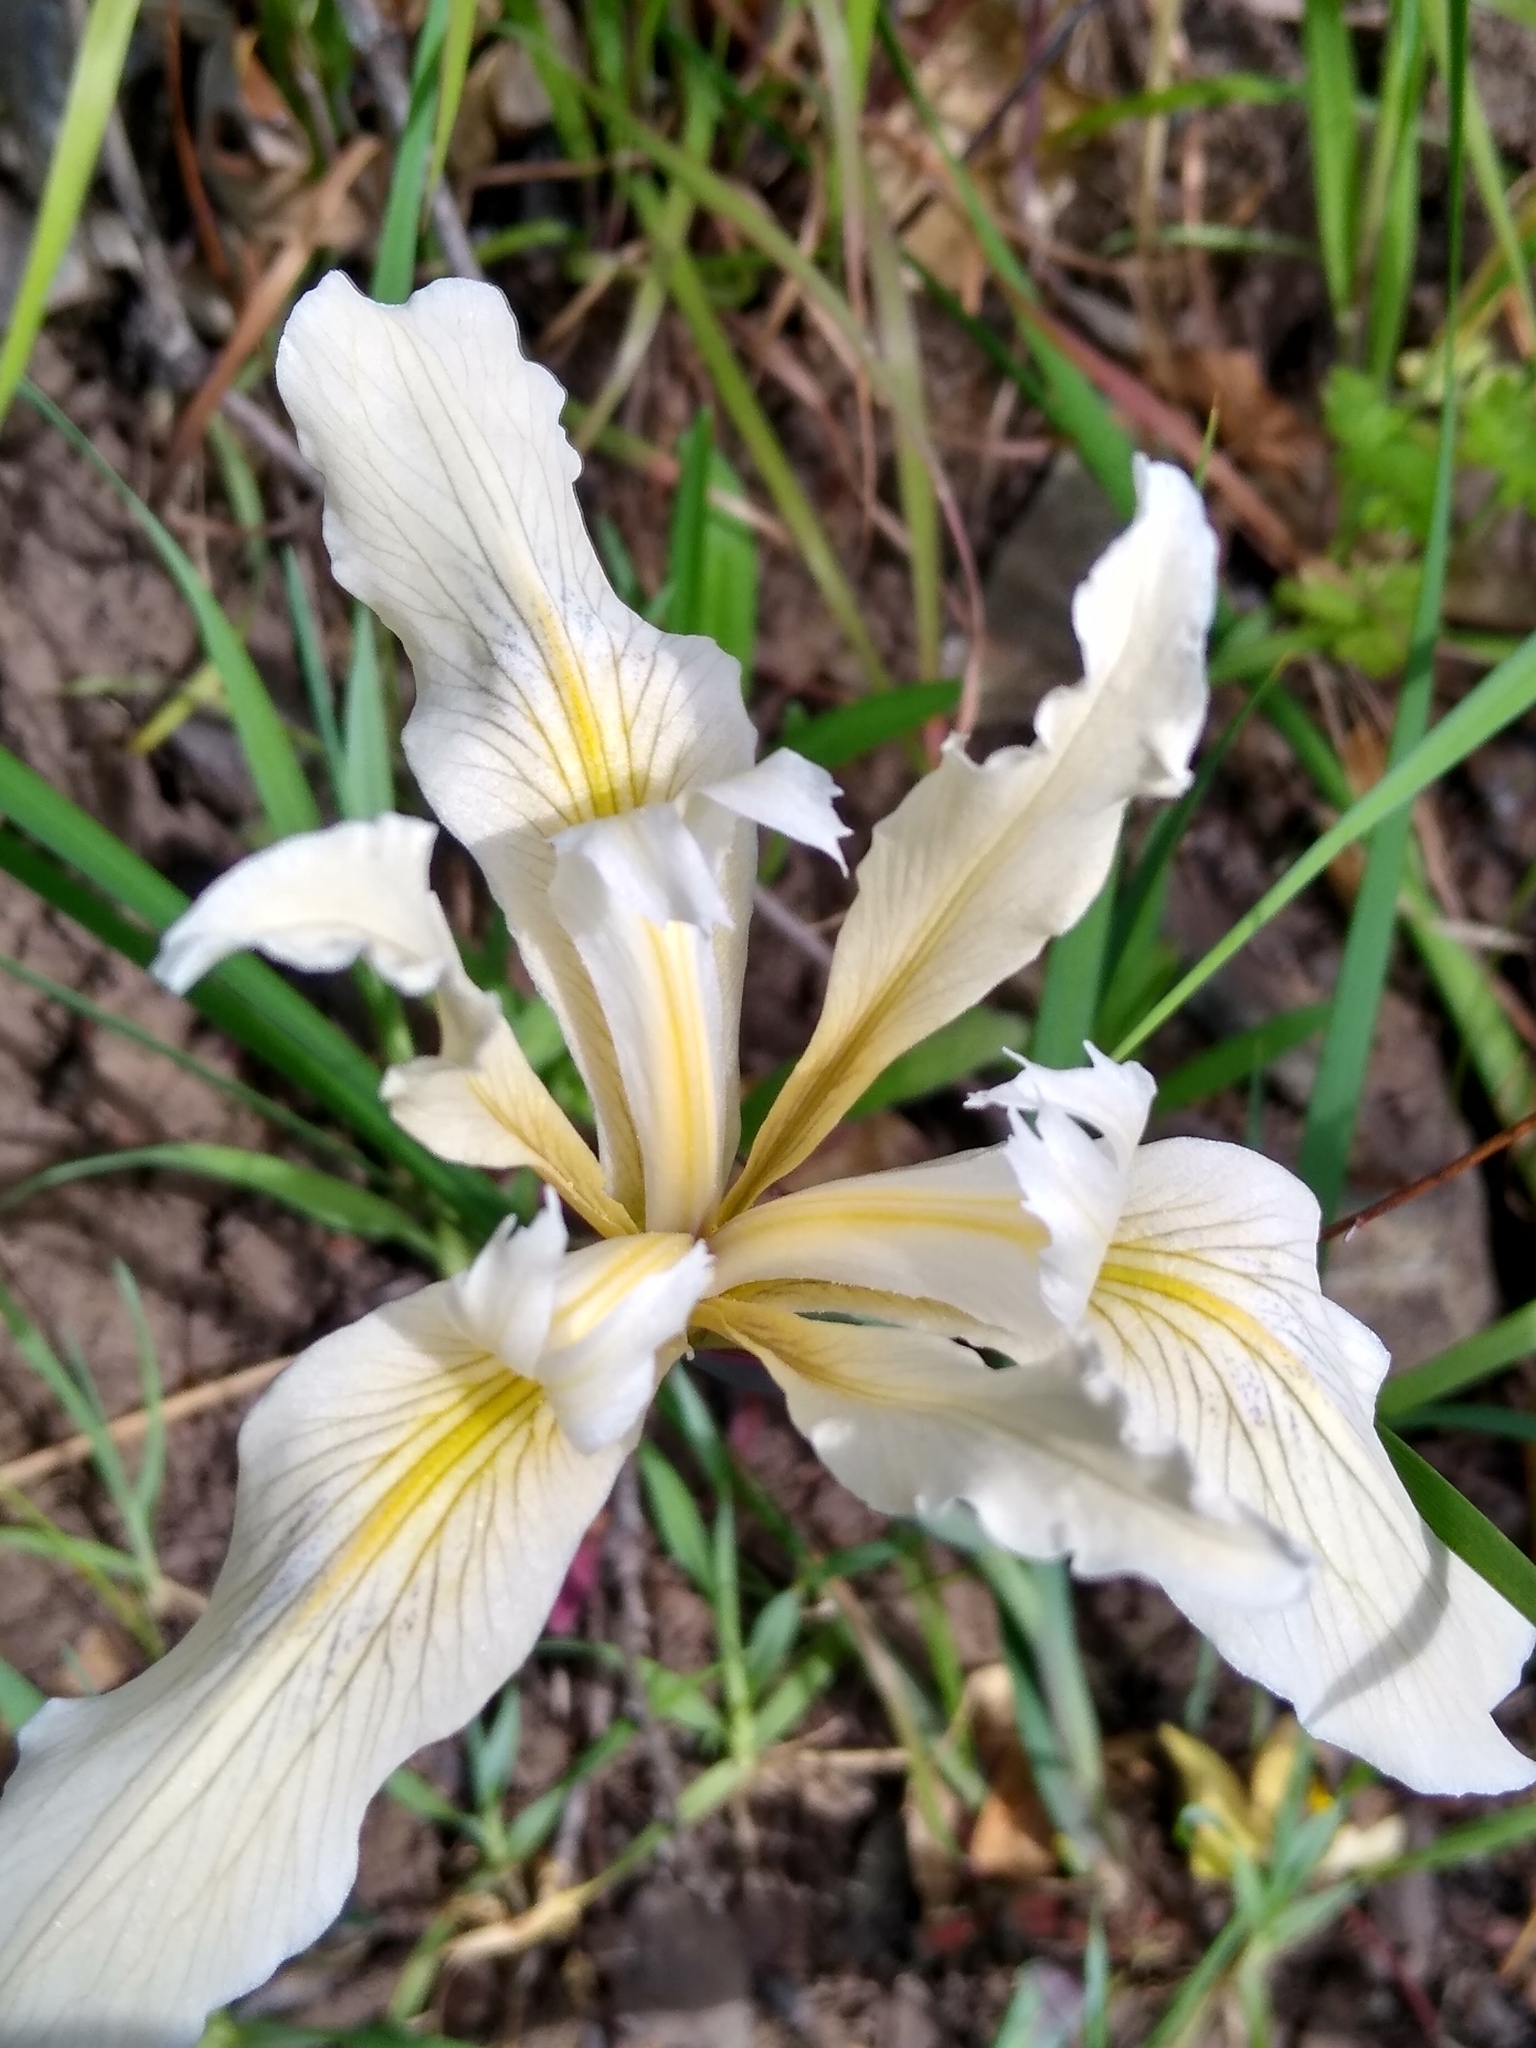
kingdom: Plantae
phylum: Tracheophyta
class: Liliopsida
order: Asparagales
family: Iridaceae
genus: Iris
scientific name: Iris fernaldii
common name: Fernald's iris
